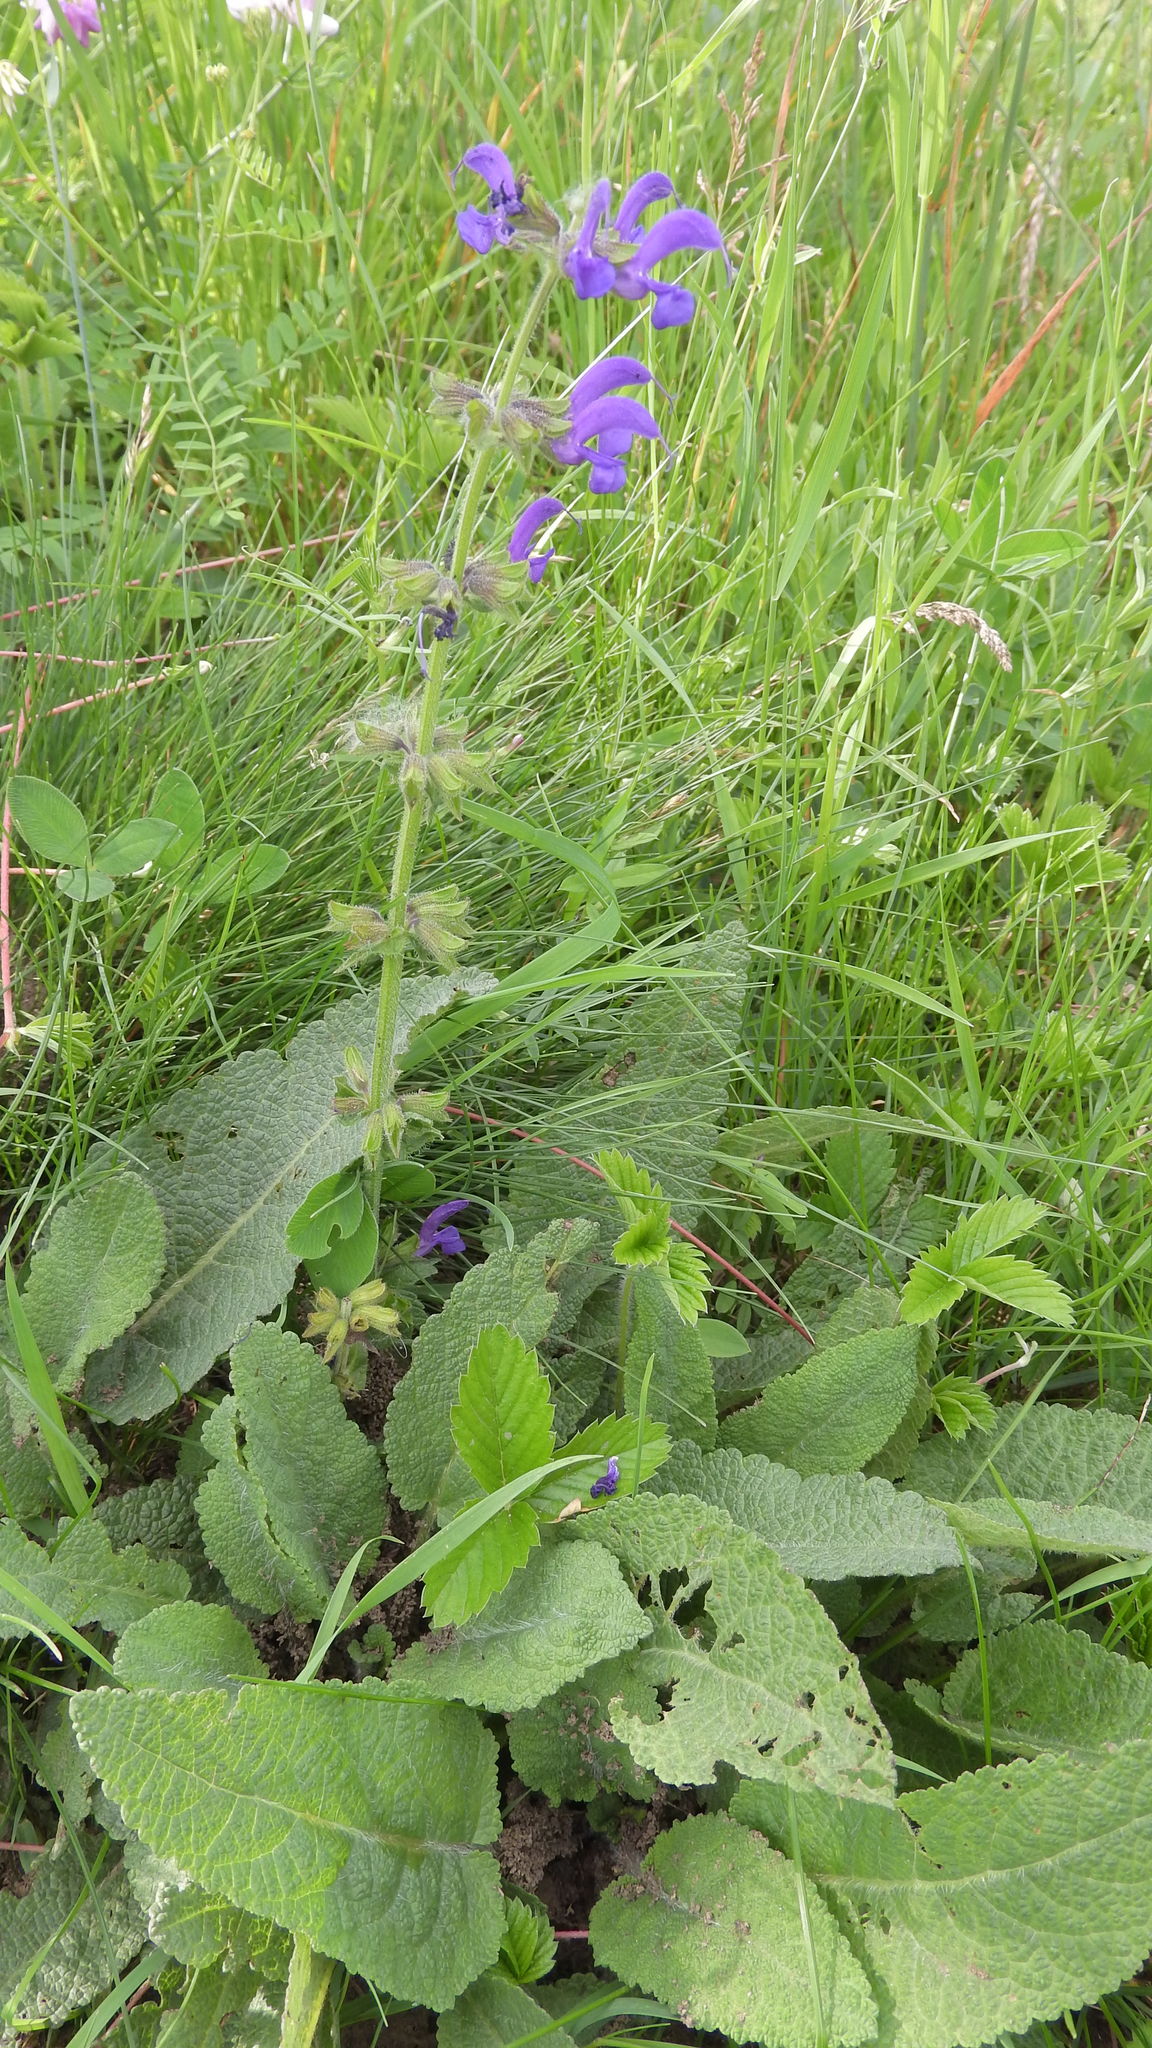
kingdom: Plantae
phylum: Tracheophyta
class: Magnoliopsida
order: Lamiales
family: Lamiaceae
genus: Salvia
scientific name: Salvia pratensis
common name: Meadow sage
